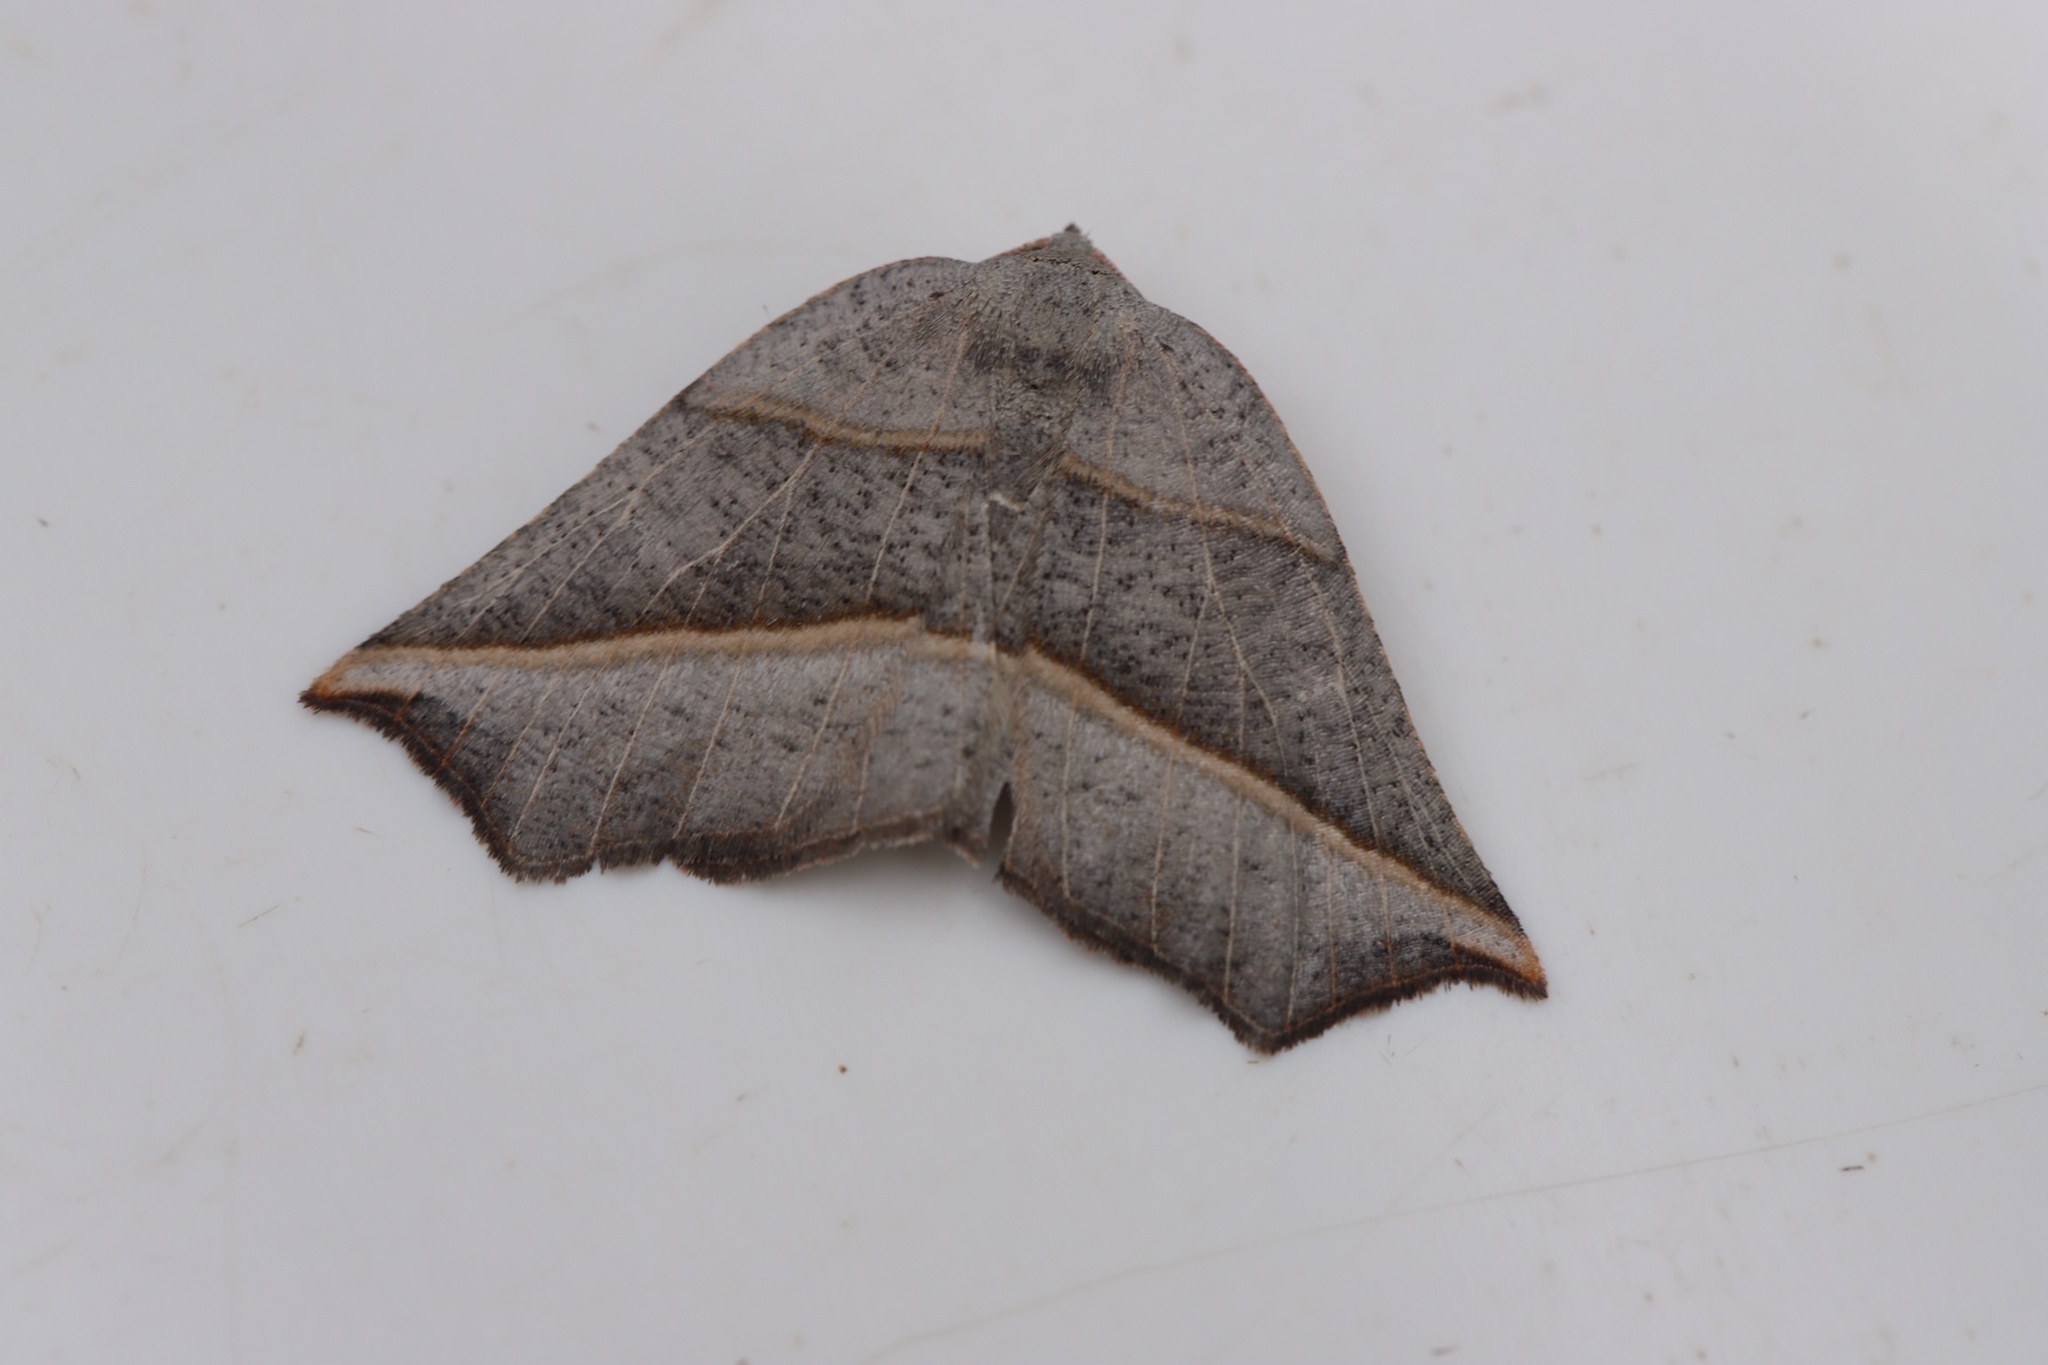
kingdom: Animalia
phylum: Arthropoda
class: Insecta
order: Lepidoptera
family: Geometridae
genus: Metanema
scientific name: Metanema determinata
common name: Dark metanema
